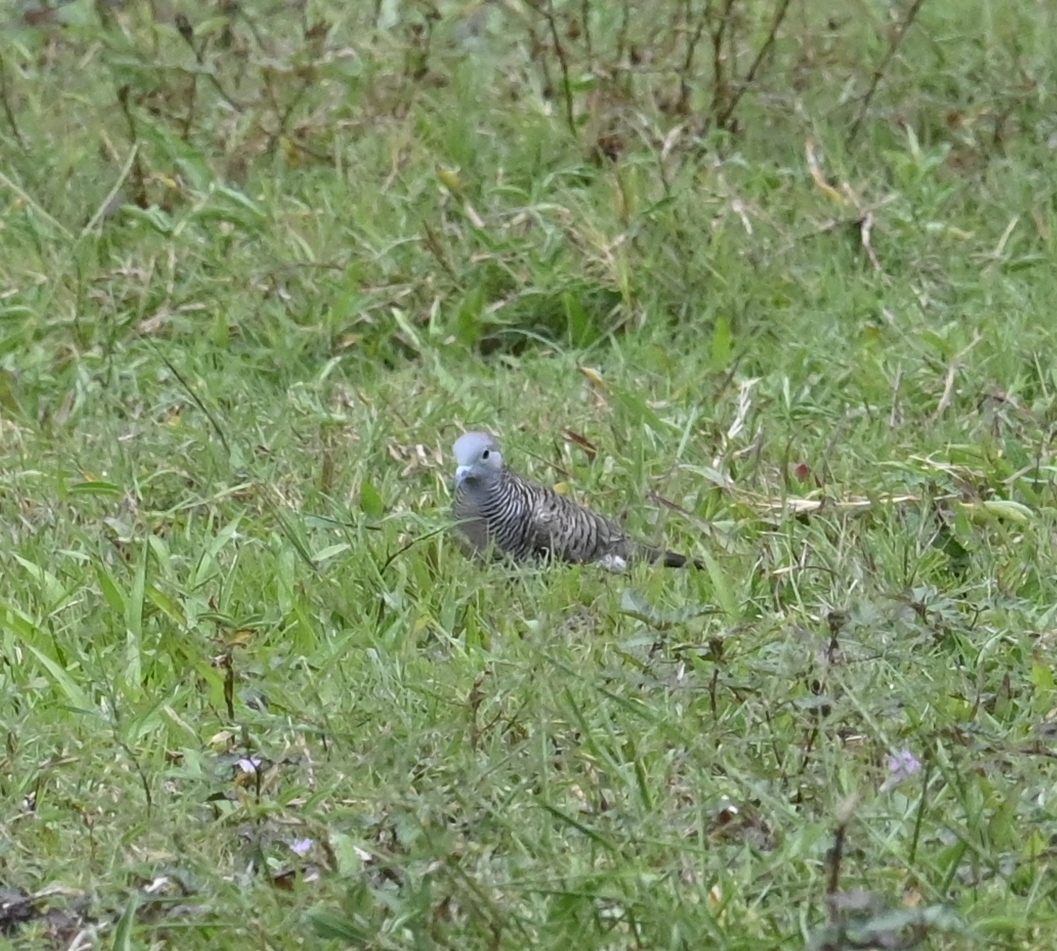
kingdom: Animalia
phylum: Chordata
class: Aves
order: Columbiformes
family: Columbidae
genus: Geopelia
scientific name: Geopelia striata
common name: Zebra dove
